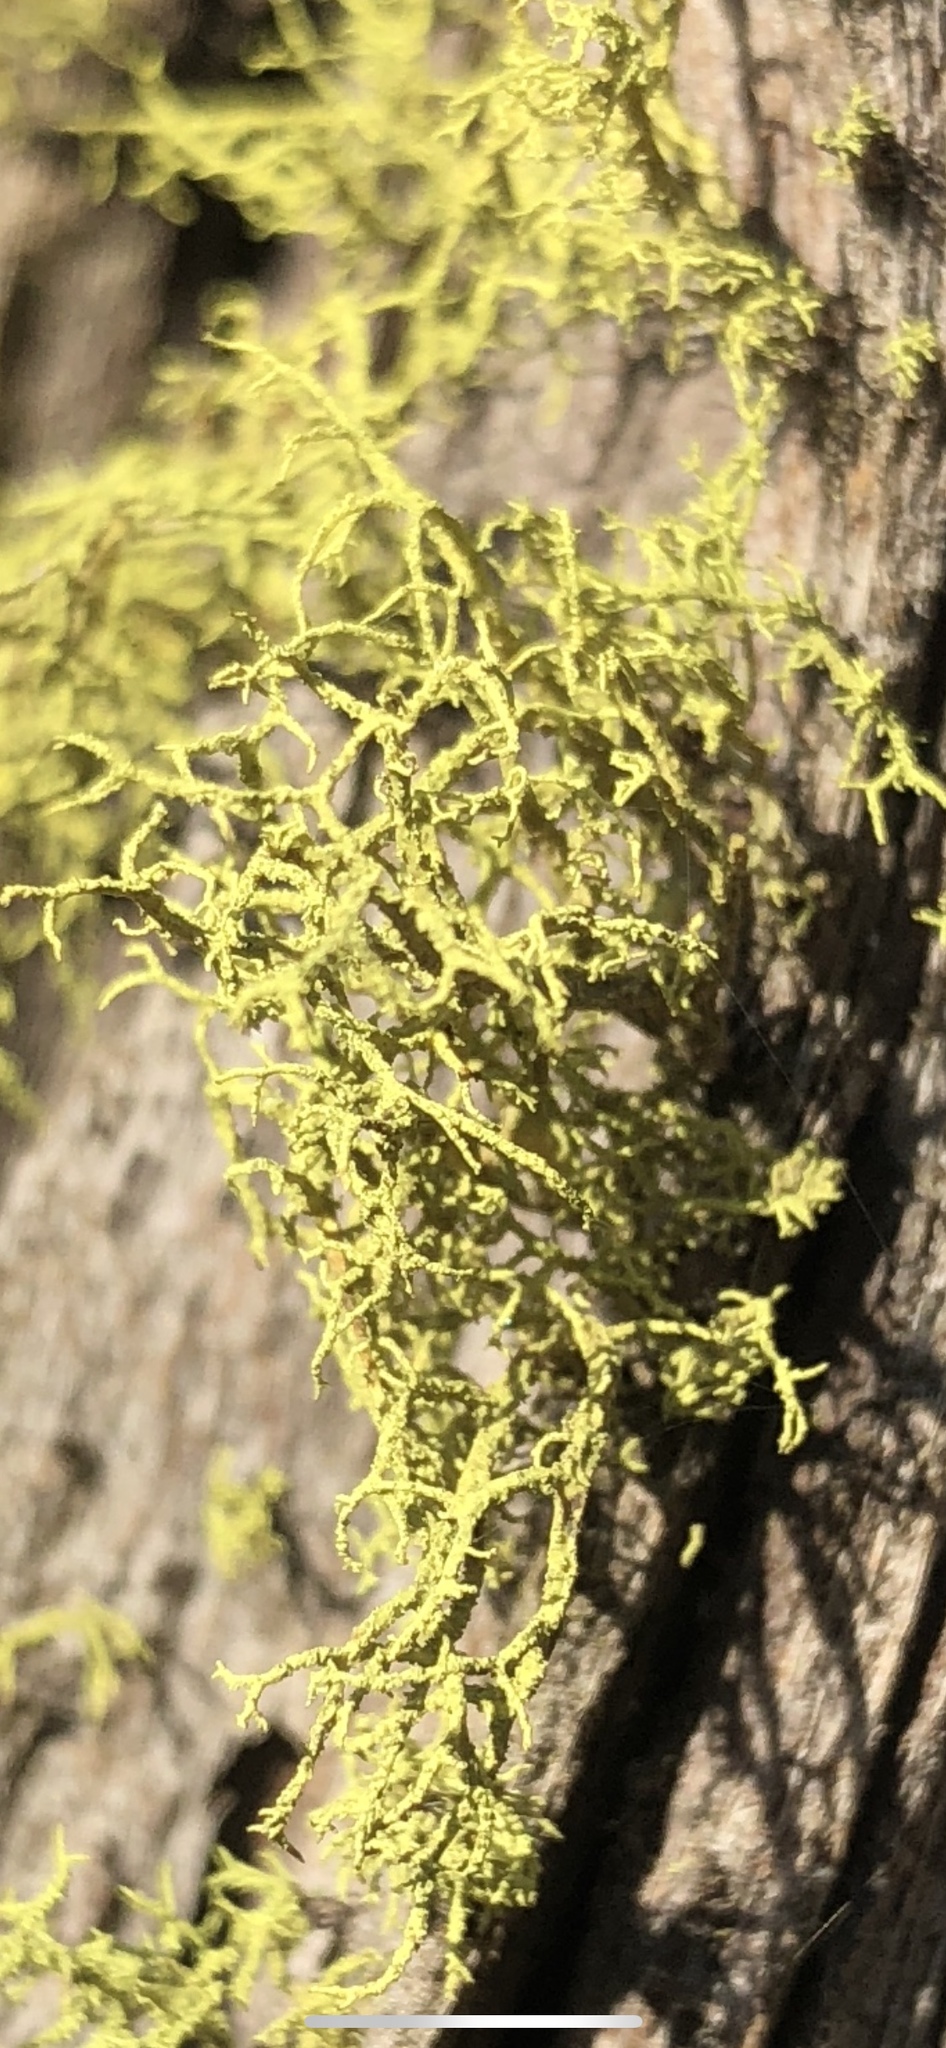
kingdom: Fungi
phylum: Ascomycota
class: Lecanoromycetes
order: Lecanorales
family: Parmeliaceae
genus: Letharia
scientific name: Letharia vulpina
